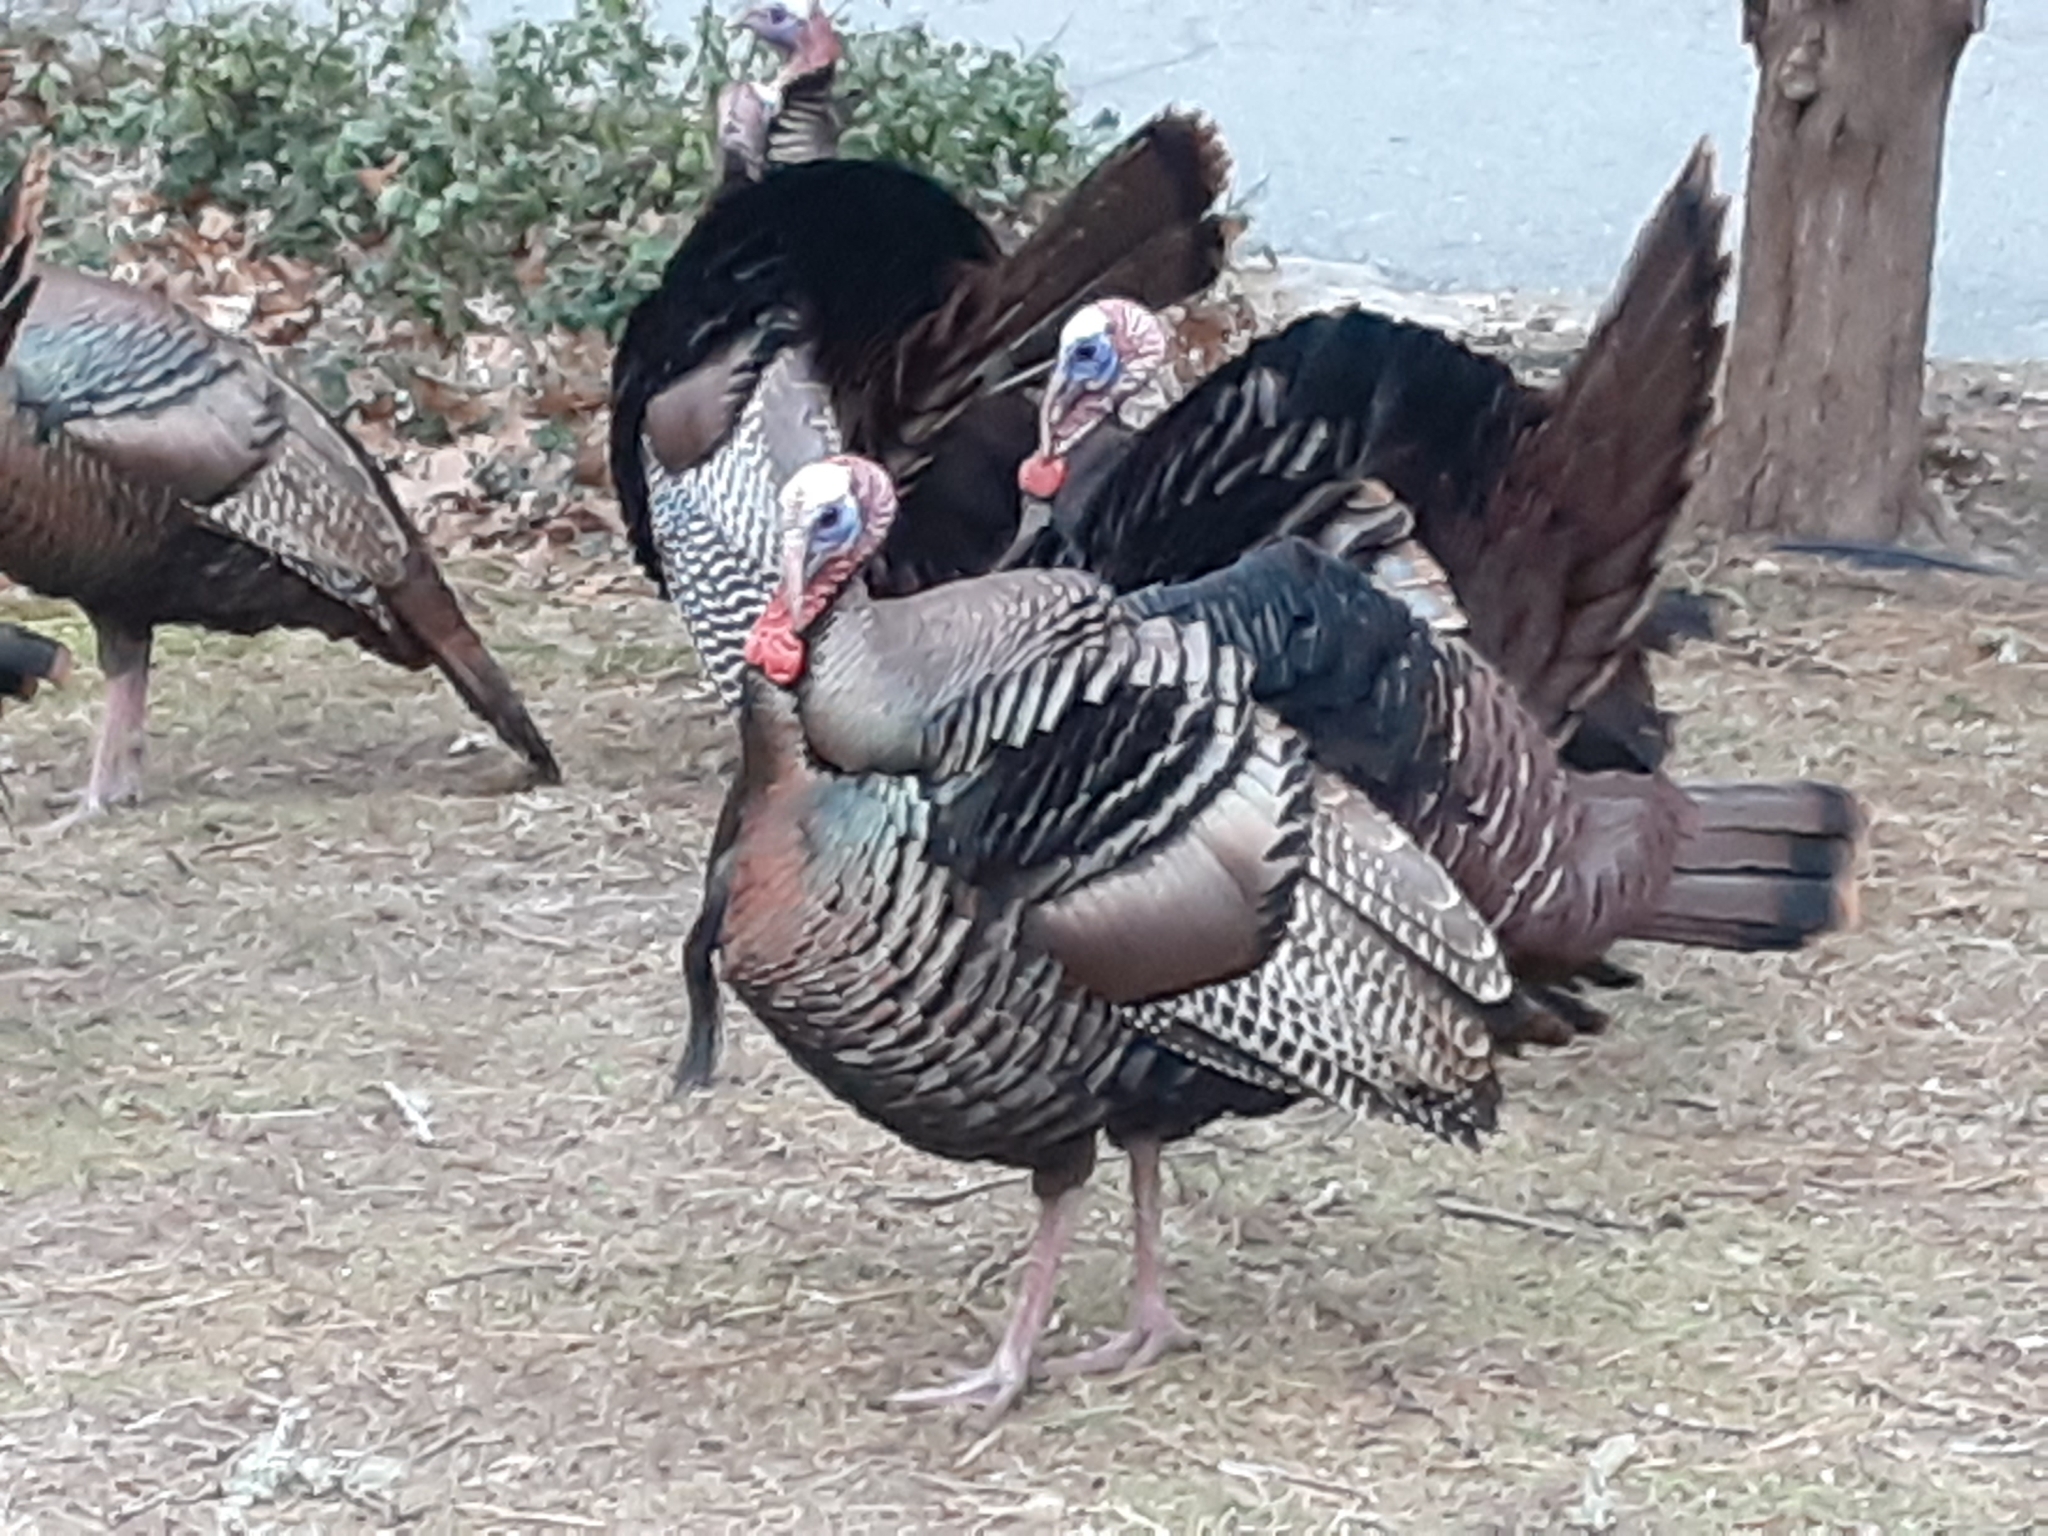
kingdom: Animalia
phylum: Chordata
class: Aves
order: Galliformes
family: Phasianidae
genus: Meleagris
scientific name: Meleagris gallopavo
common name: Wild turkey
